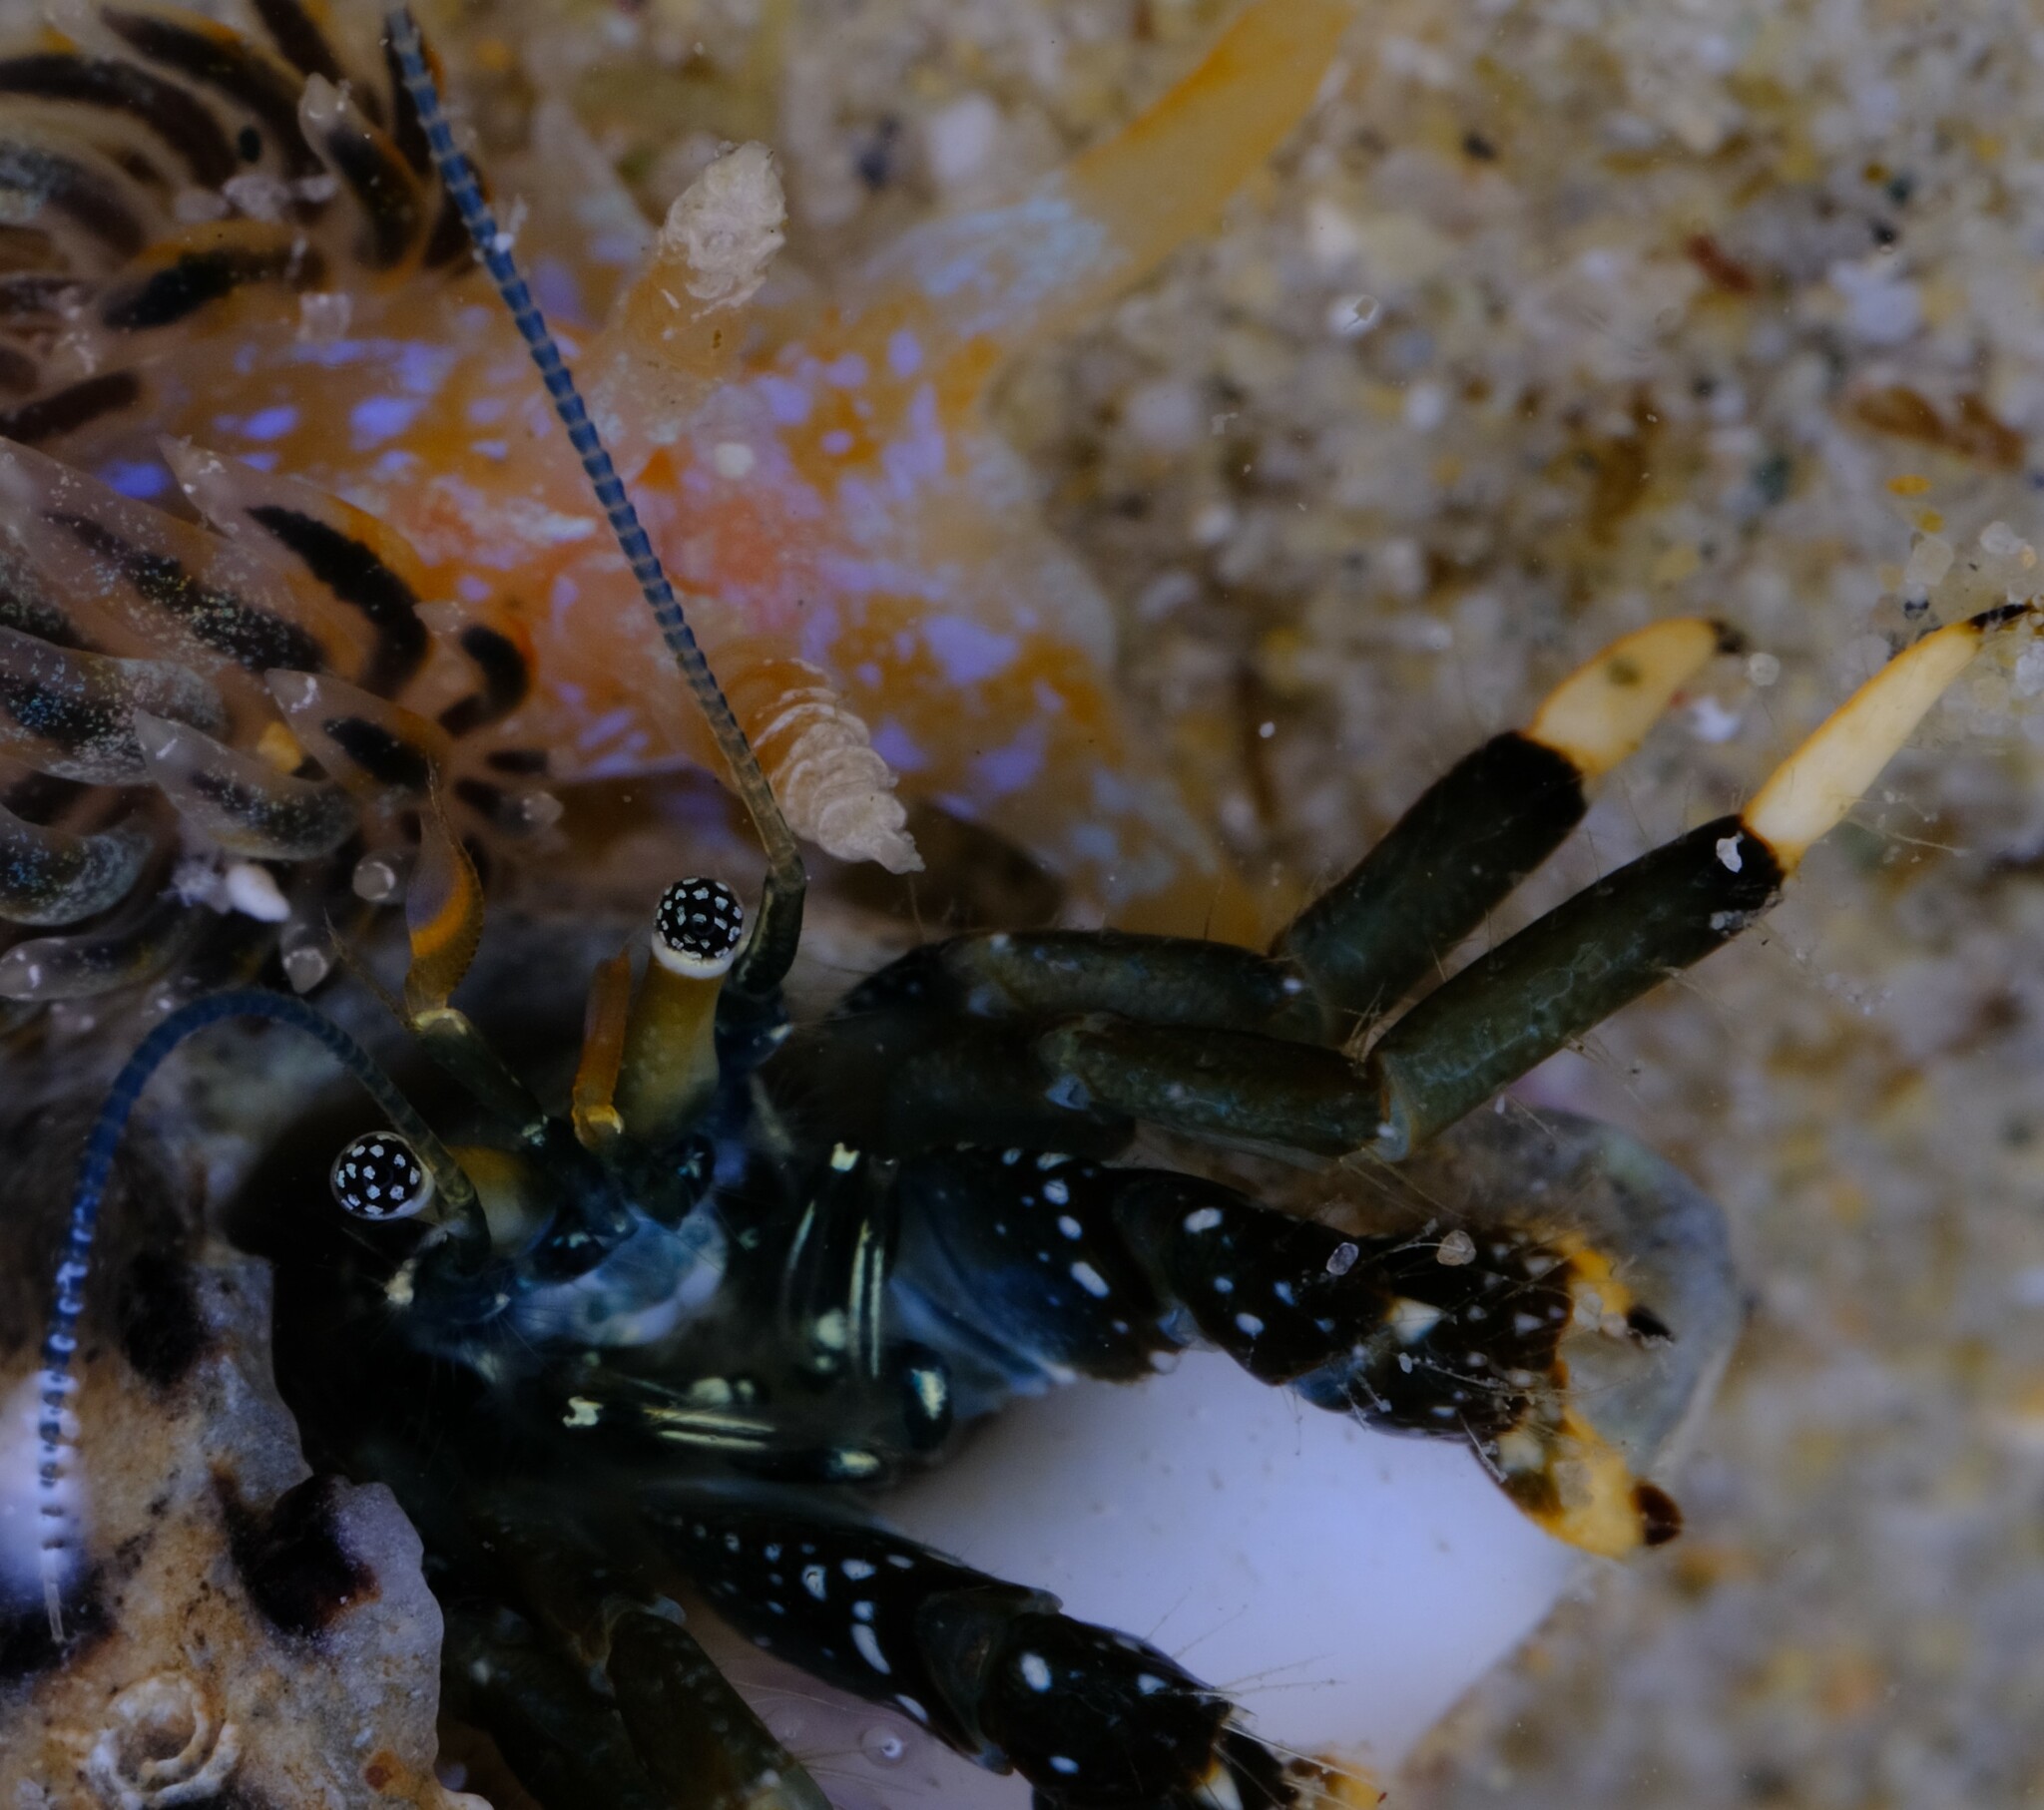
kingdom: Animalia
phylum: Arthropoda
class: Malacostraca
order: Decapoda
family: Diogenidae
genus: Clibanarius
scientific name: Clibanarius virescens
